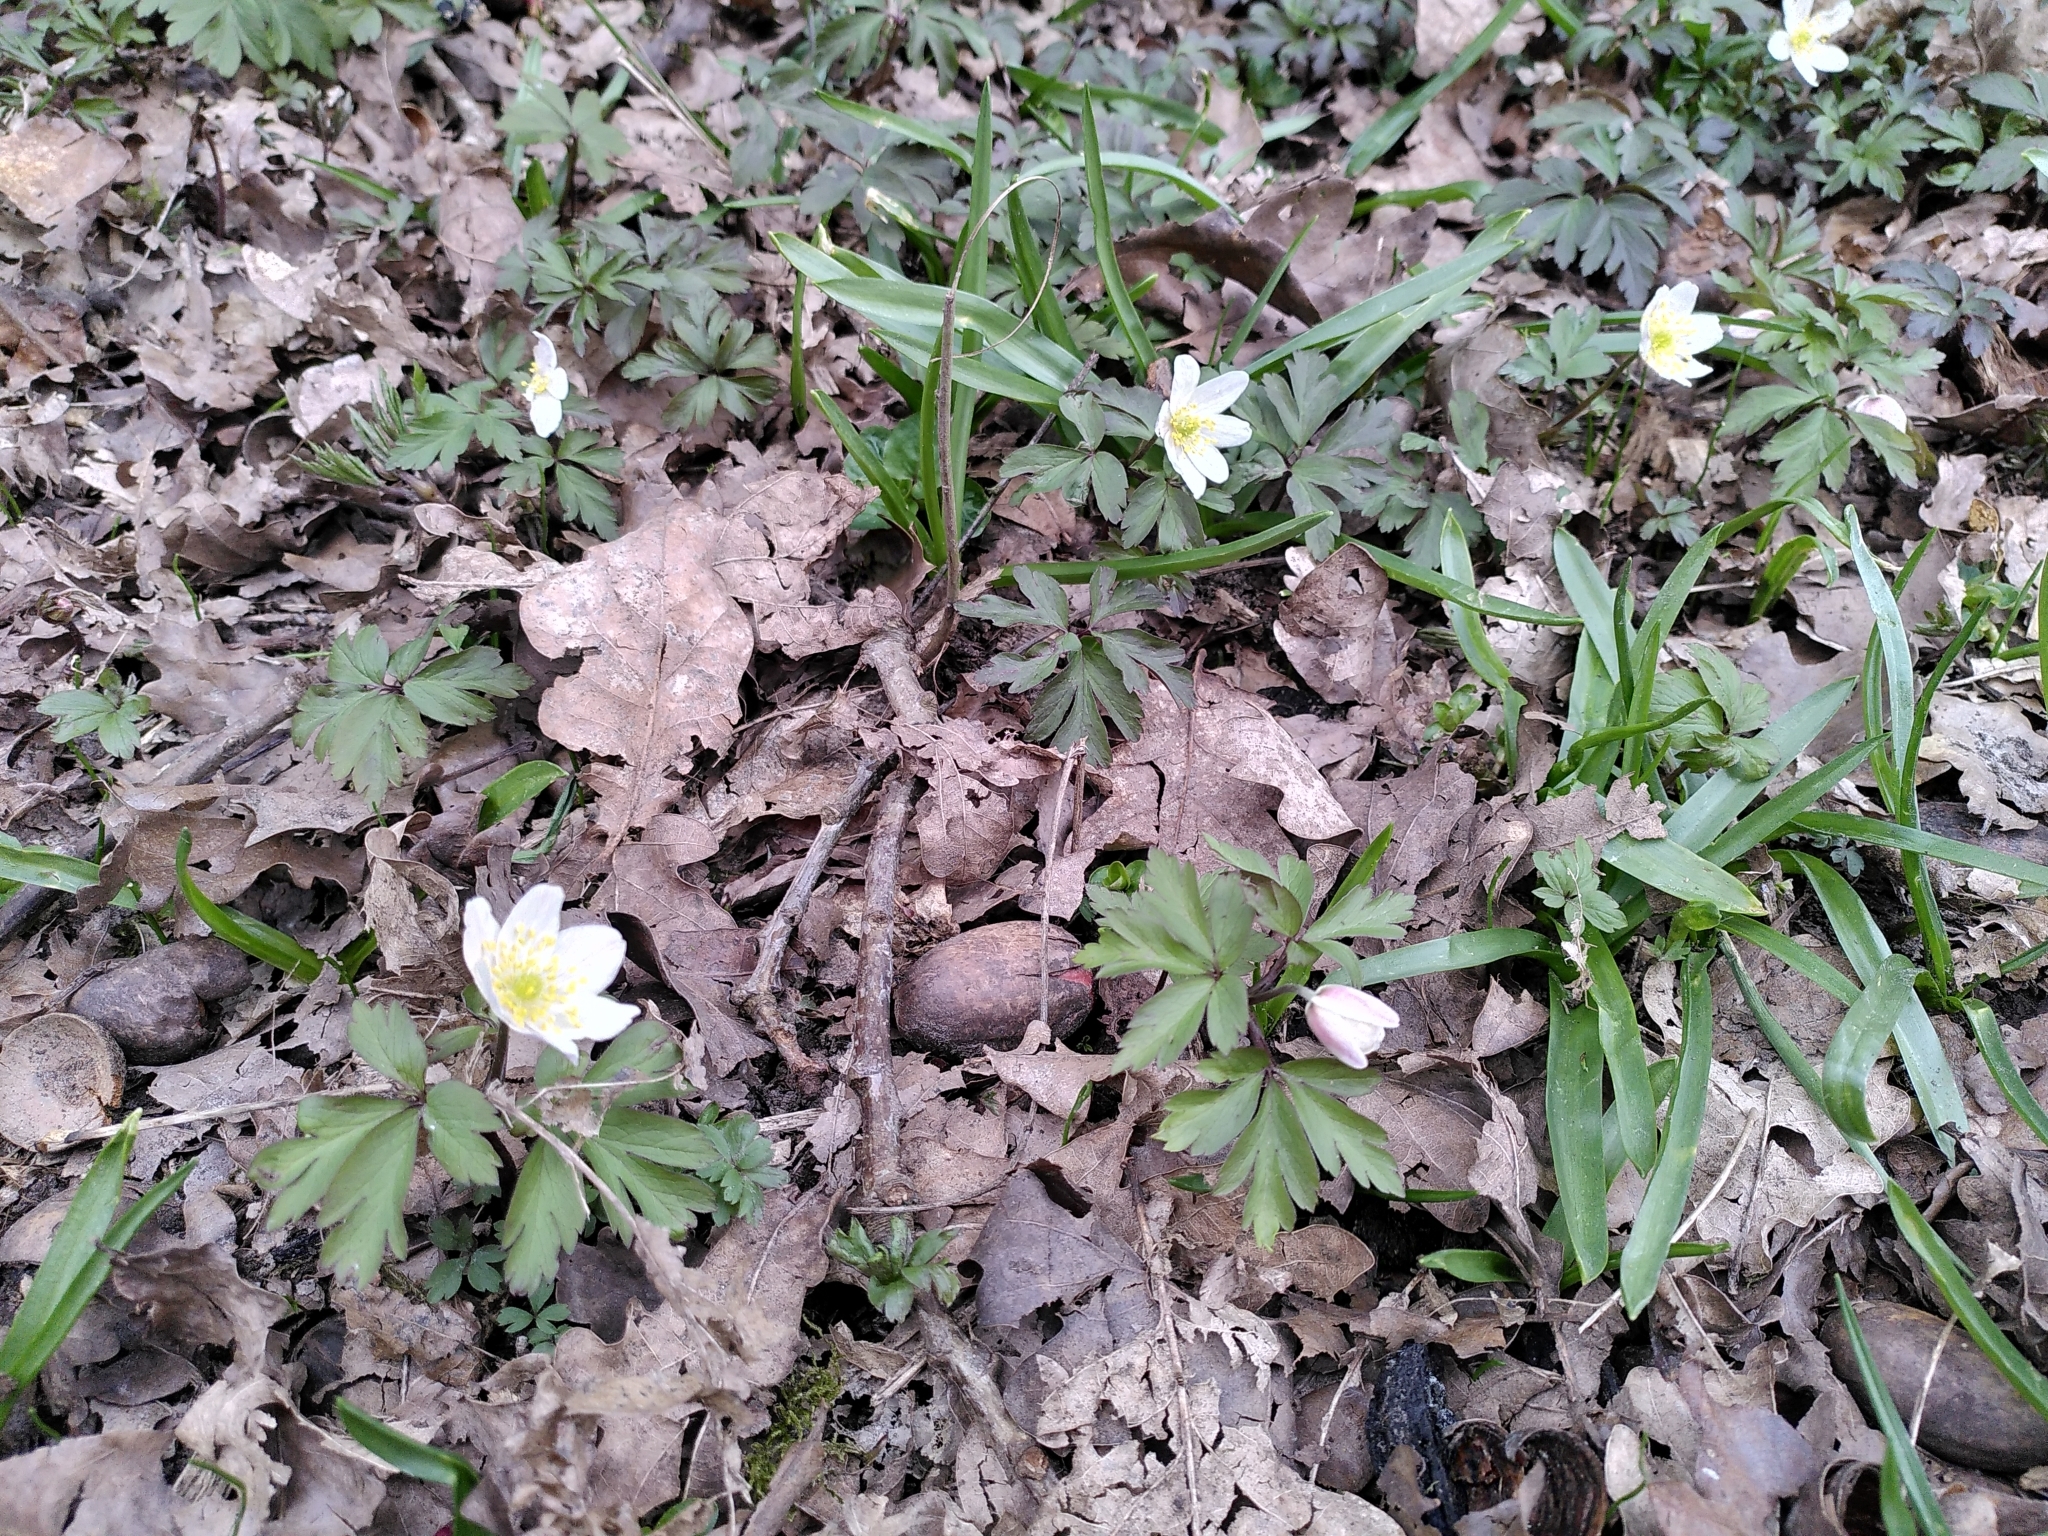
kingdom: Plantae
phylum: Tracheophyta
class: Magnoliopsida
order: Ranunculales
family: Ranunculaceae
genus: Anemone
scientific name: Anemone nemorosa
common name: Wood anemone
